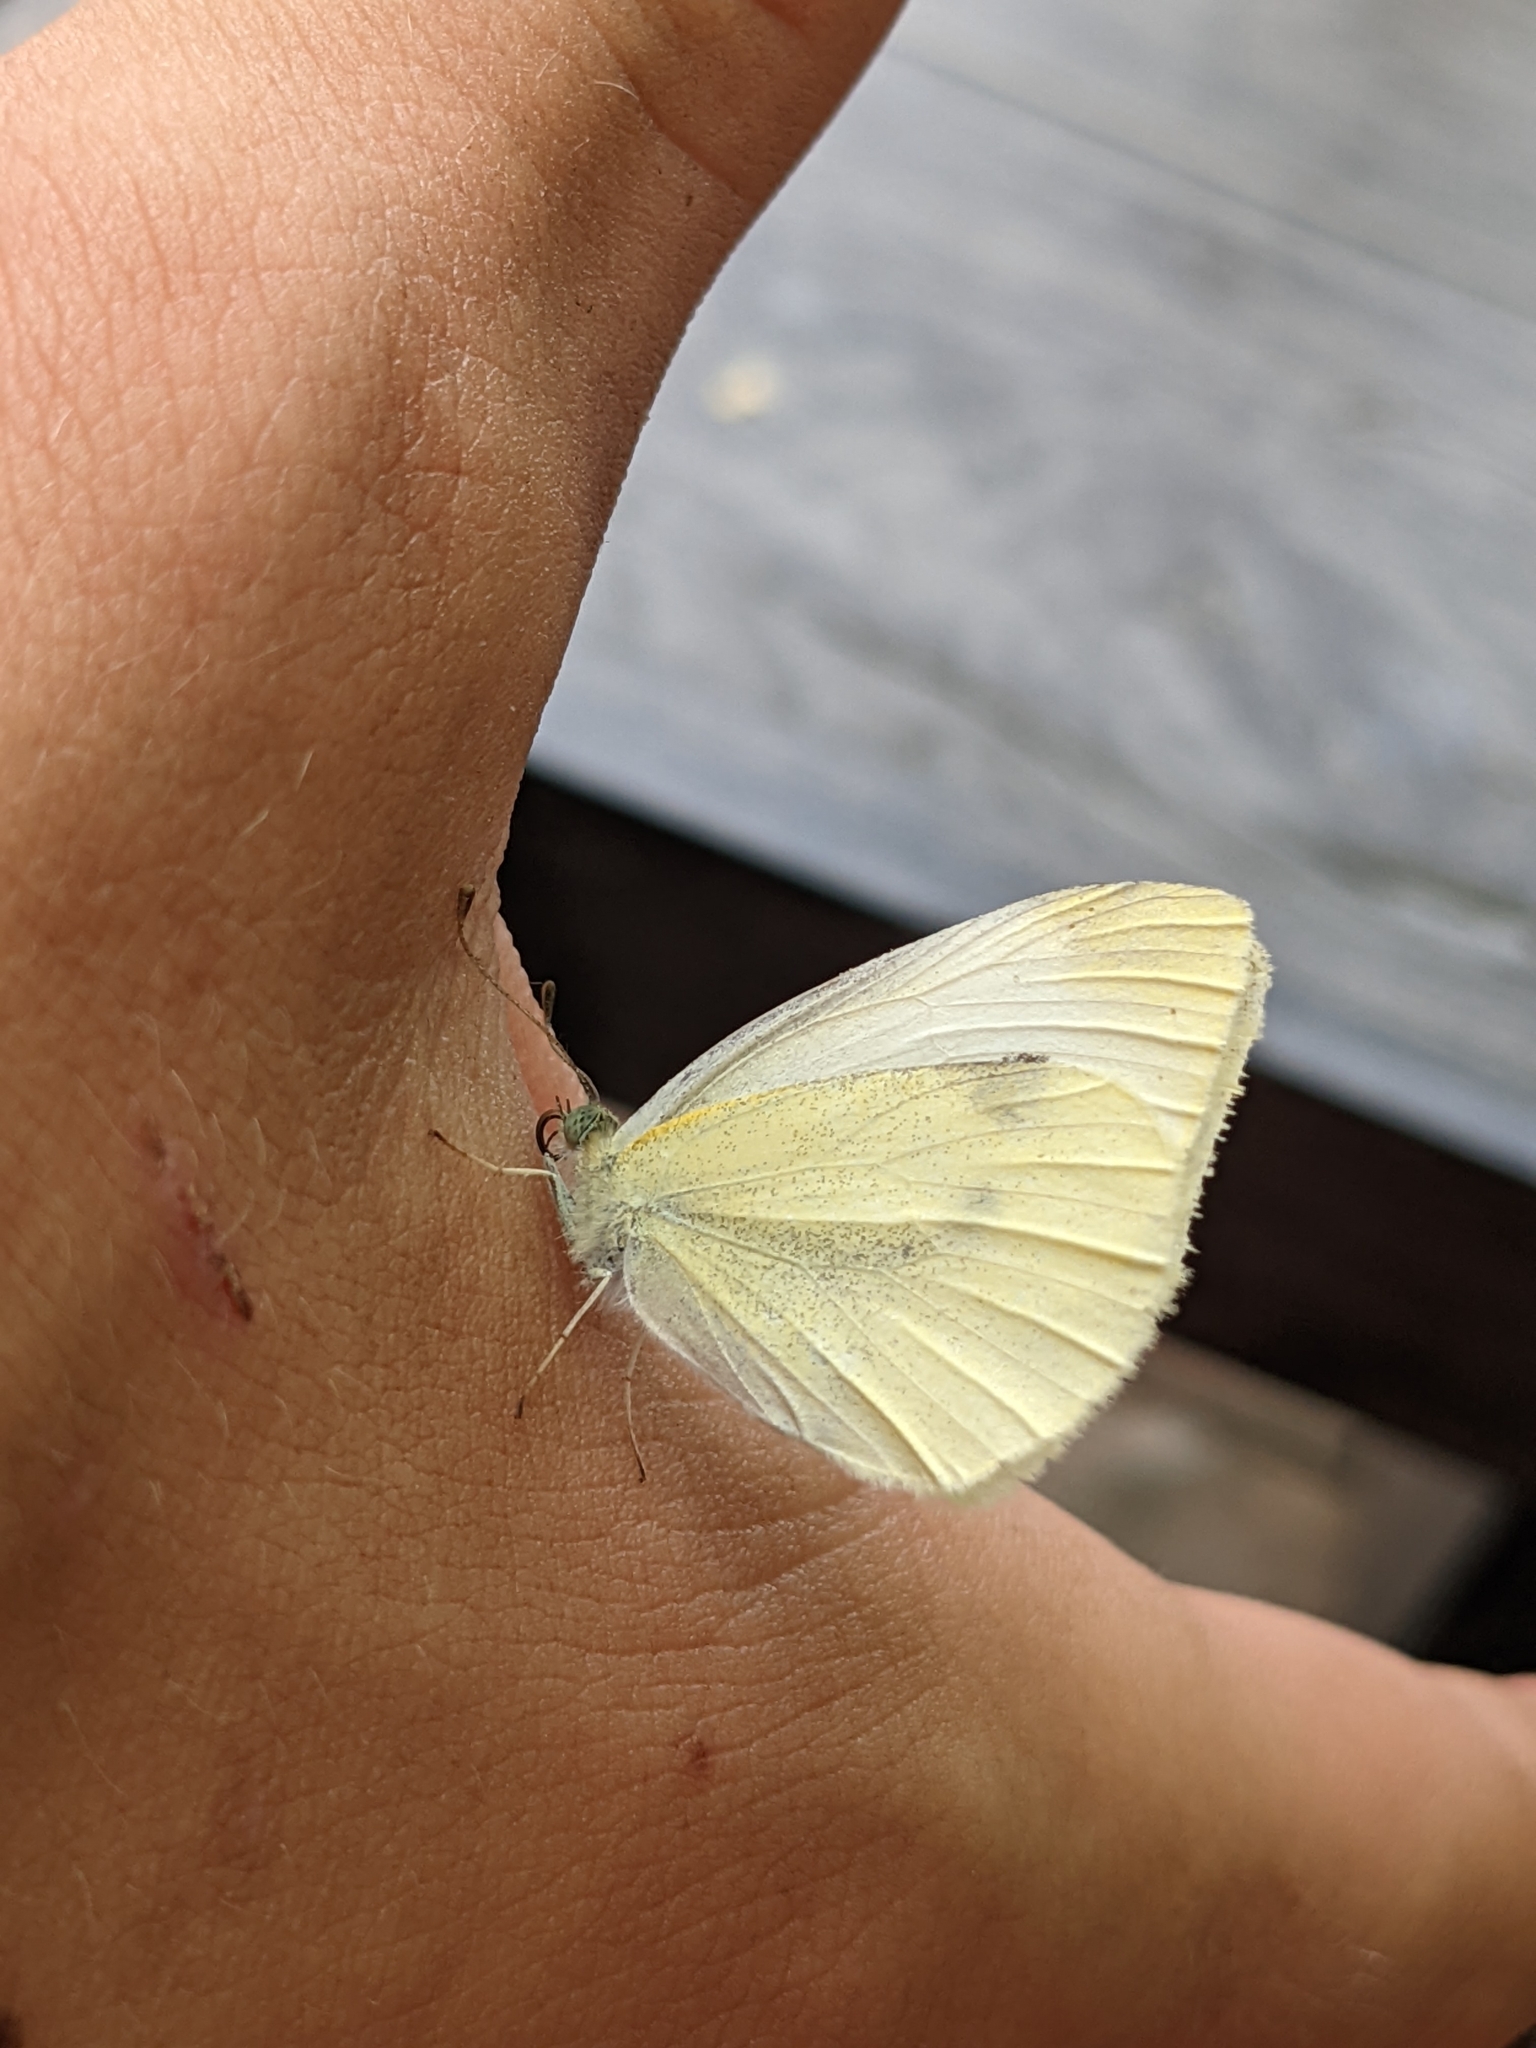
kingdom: Animalia
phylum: Arthropoda
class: Insecta
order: Lepidoptera
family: Pieridae
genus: Pieris
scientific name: Pieris rapae
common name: Small white
